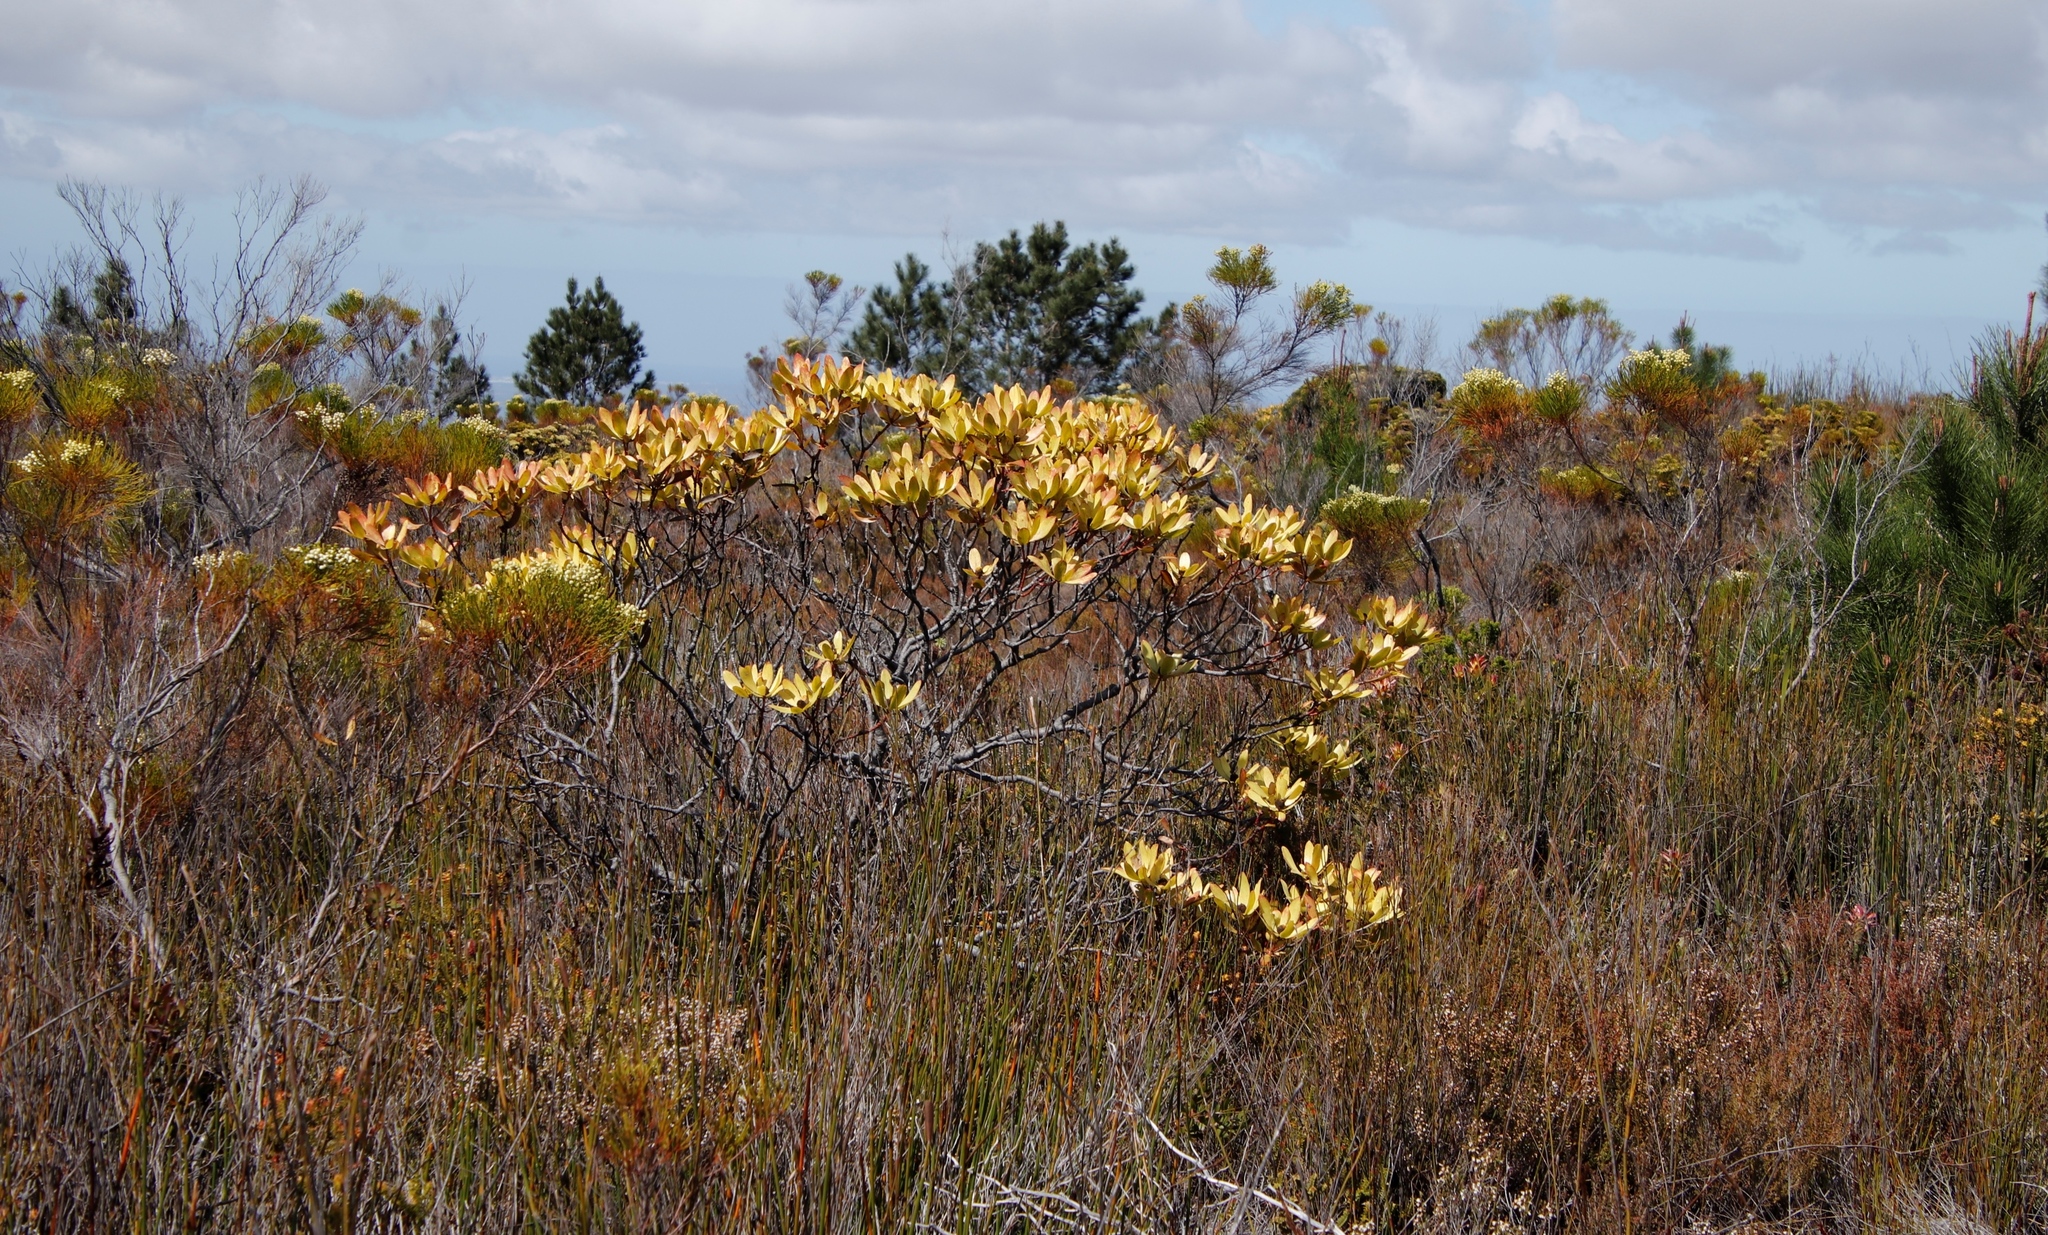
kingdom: Plantae
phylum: Tracheophyta
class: Magnoliopsida
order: Proteales
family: Proteaceae
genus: Leucadendron
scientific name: Leucadendron gandogeri
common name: Broad-leaf conebush
